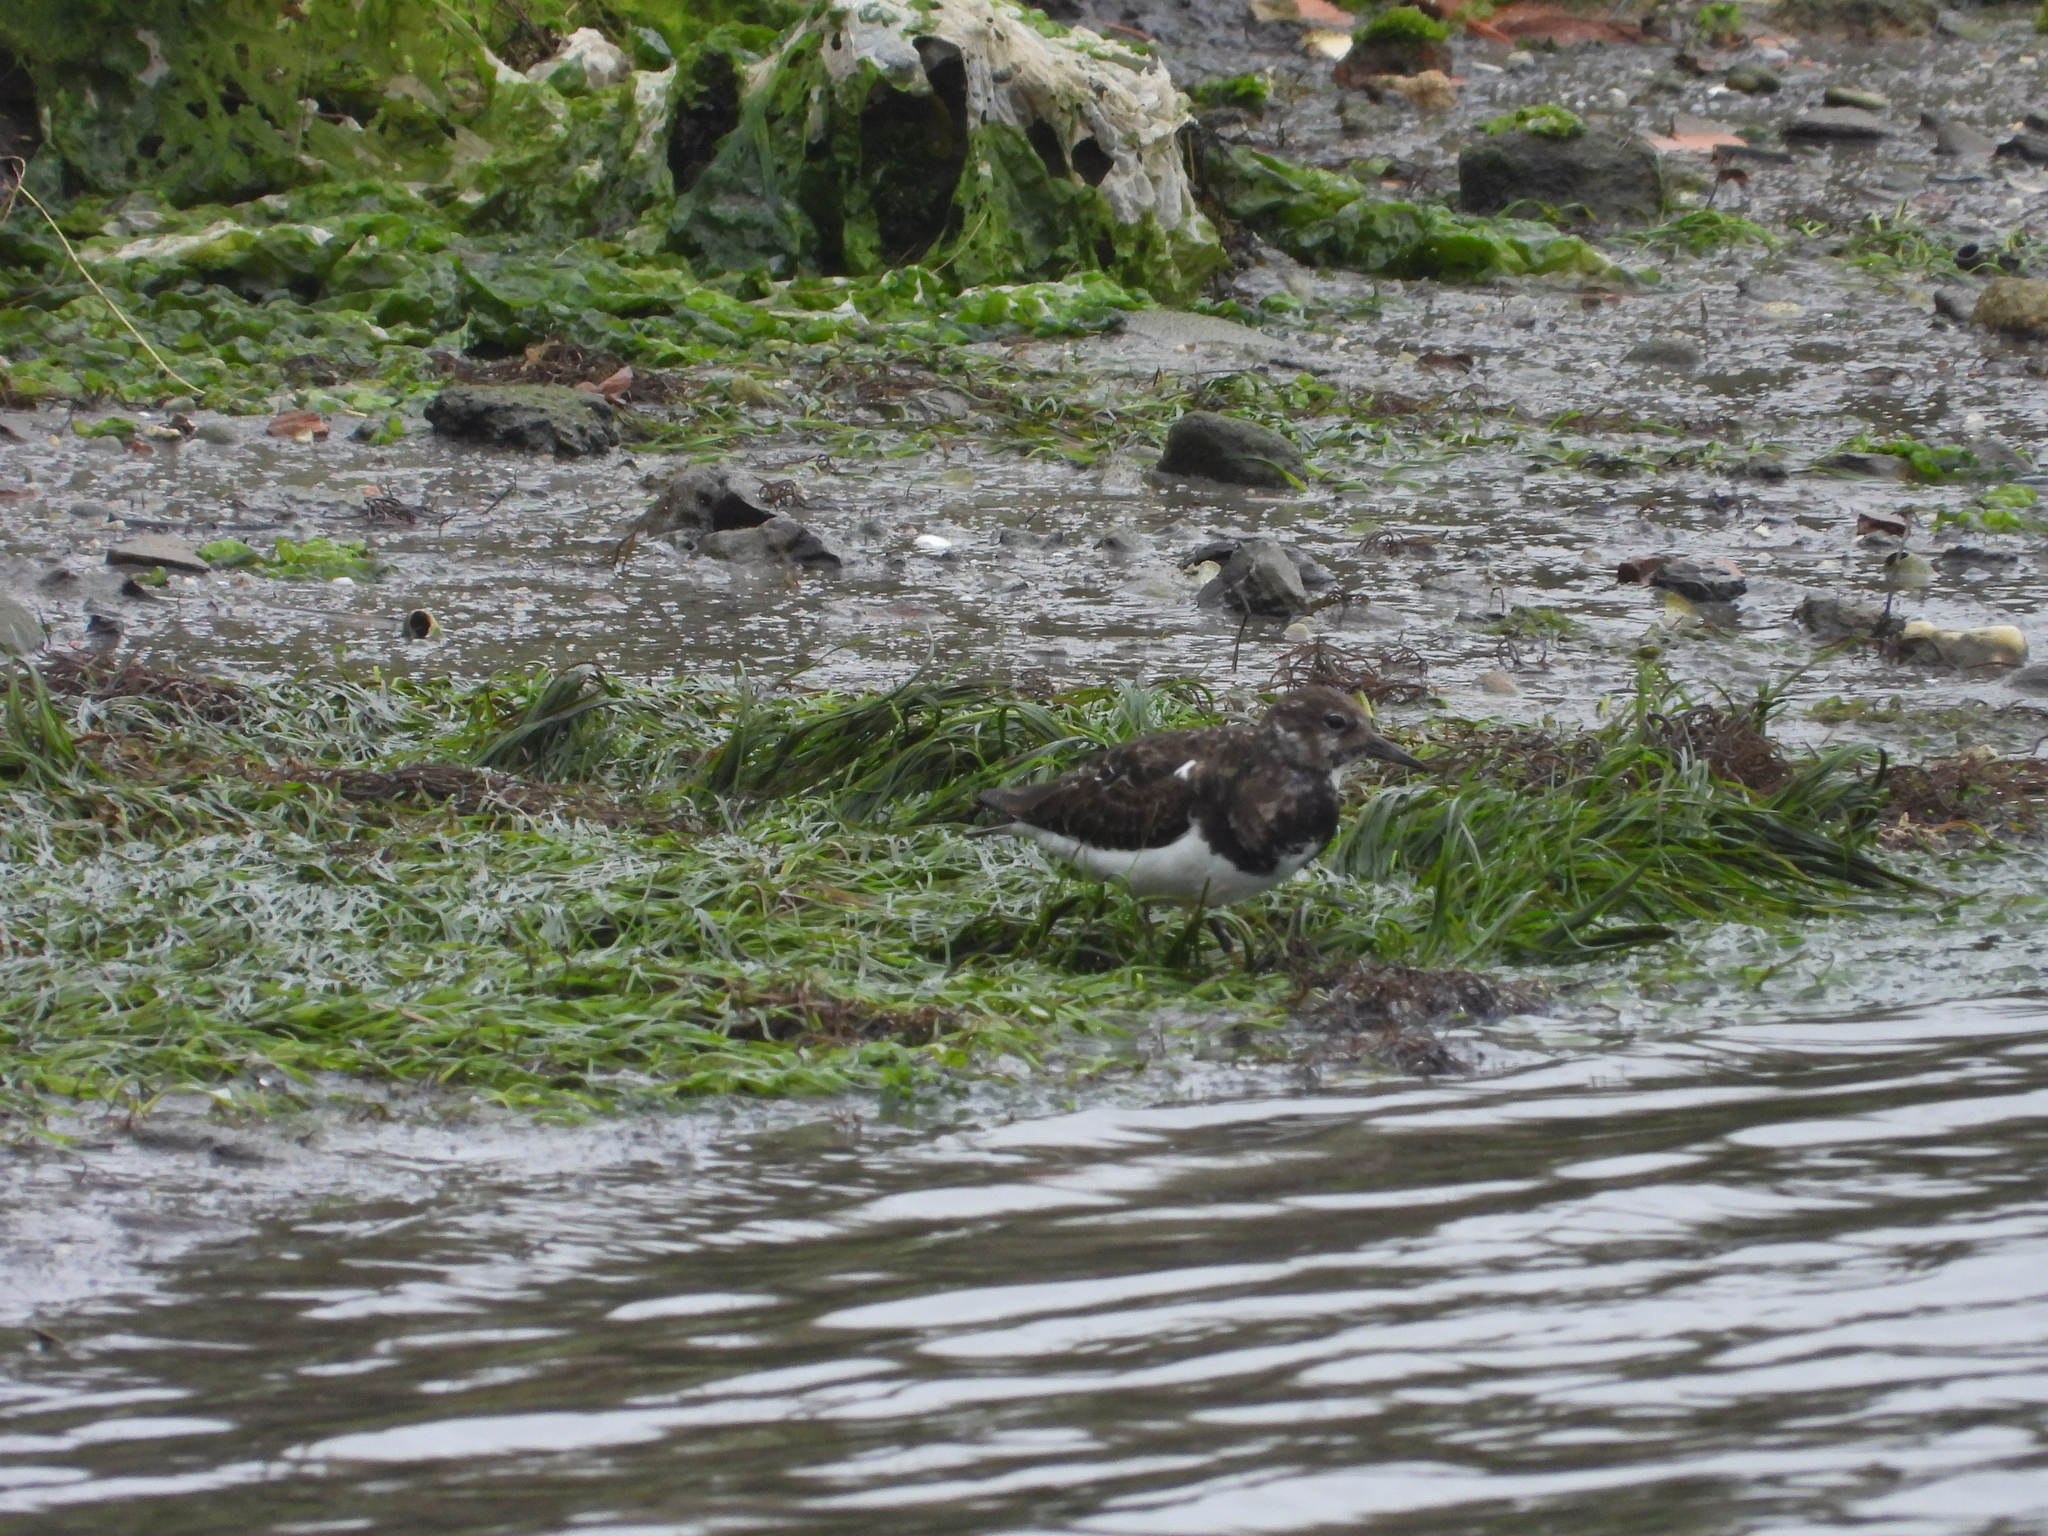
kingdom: Animalia
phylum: Chordata
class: Aves
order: Charadriiformes
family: Scolopacidae
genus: Arenaria
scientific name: Arenaria interpres
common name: Ruddy turnstone
